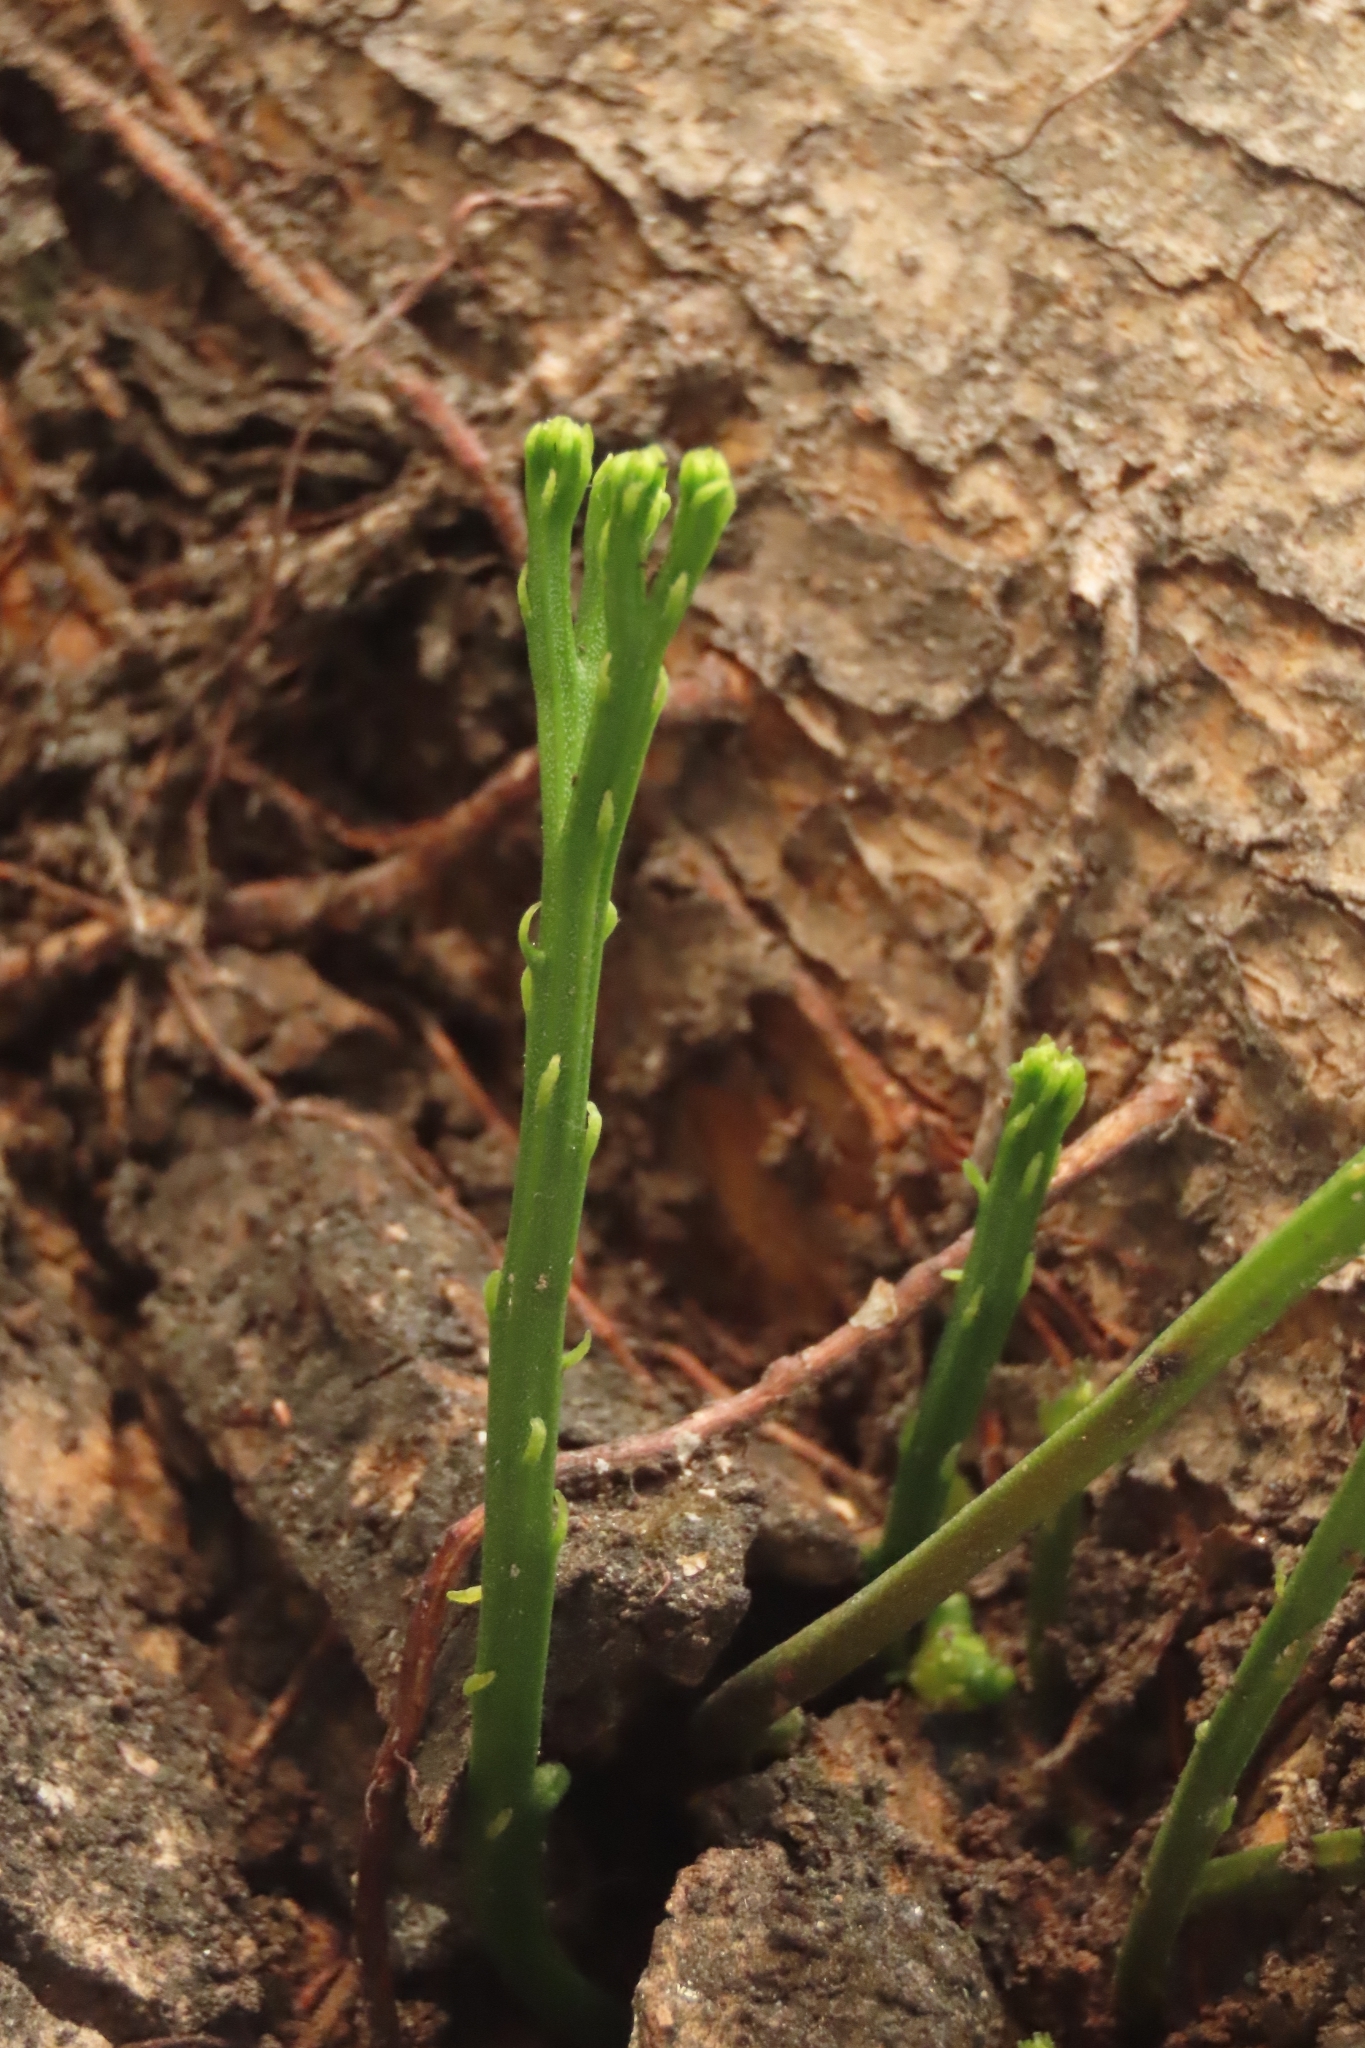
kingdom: Plantae
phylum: Tracheophyta
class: Polypodiopsida
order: Psilotales
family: Psilotaceae
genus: Psilotum
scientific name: Psilotum nudum
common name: Skeleton fork fern
